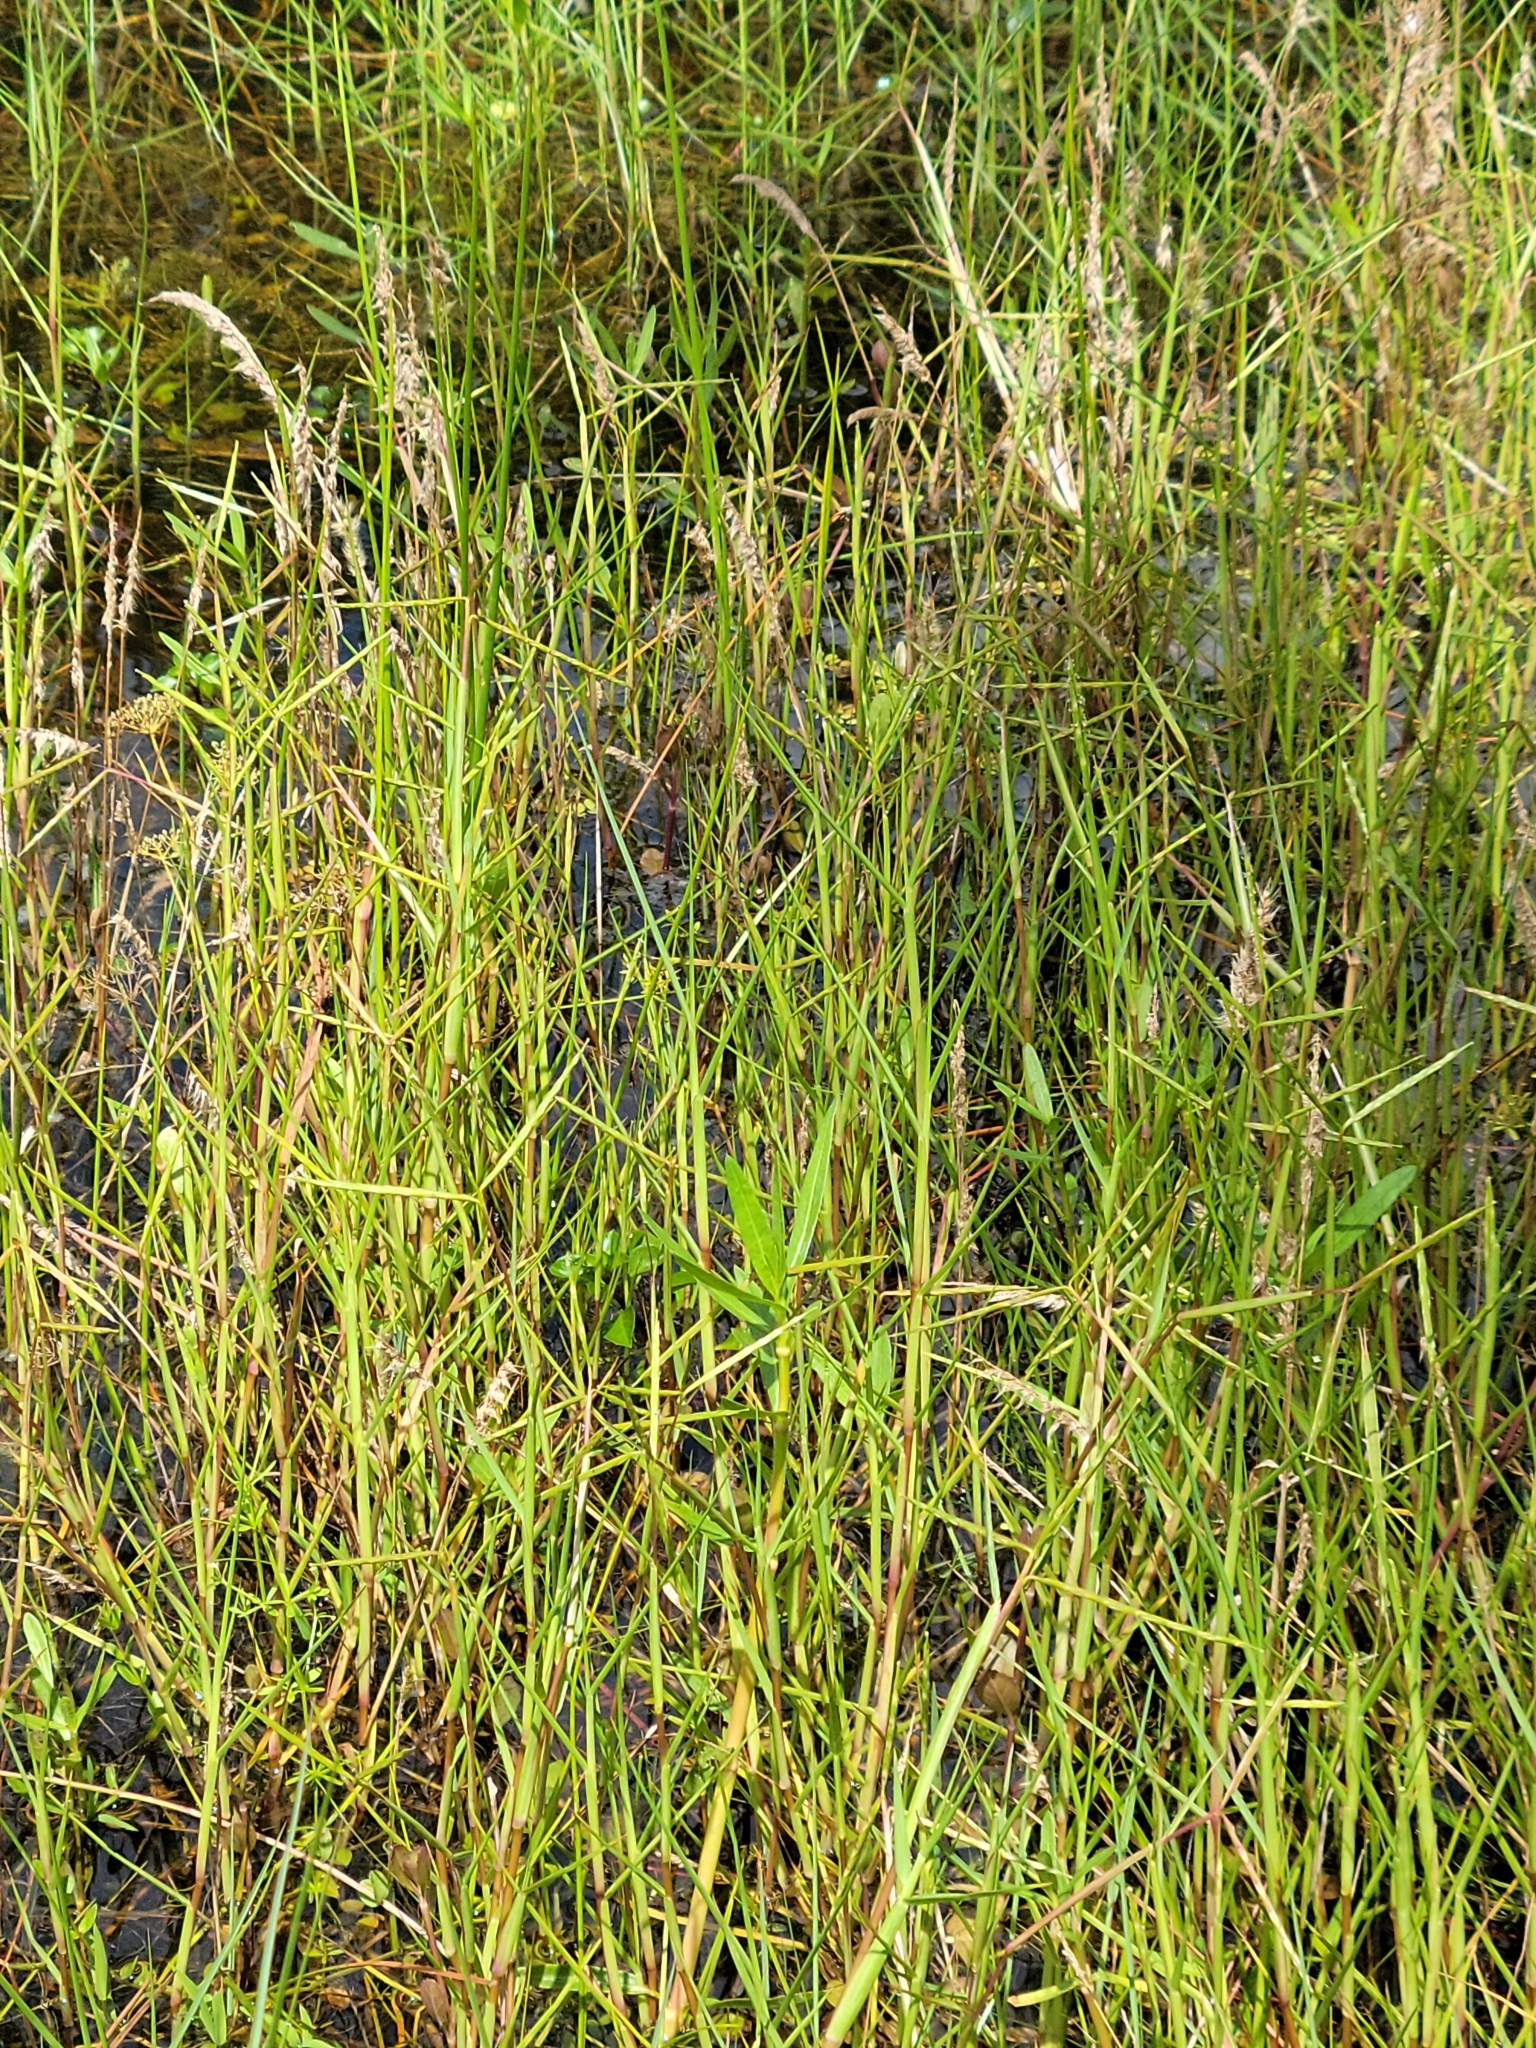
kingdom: Plantae
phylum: Tracheophyta
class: Liliopsida
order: Poales
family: Poaceae
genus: Paspalum
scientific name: Paspalum eglume
